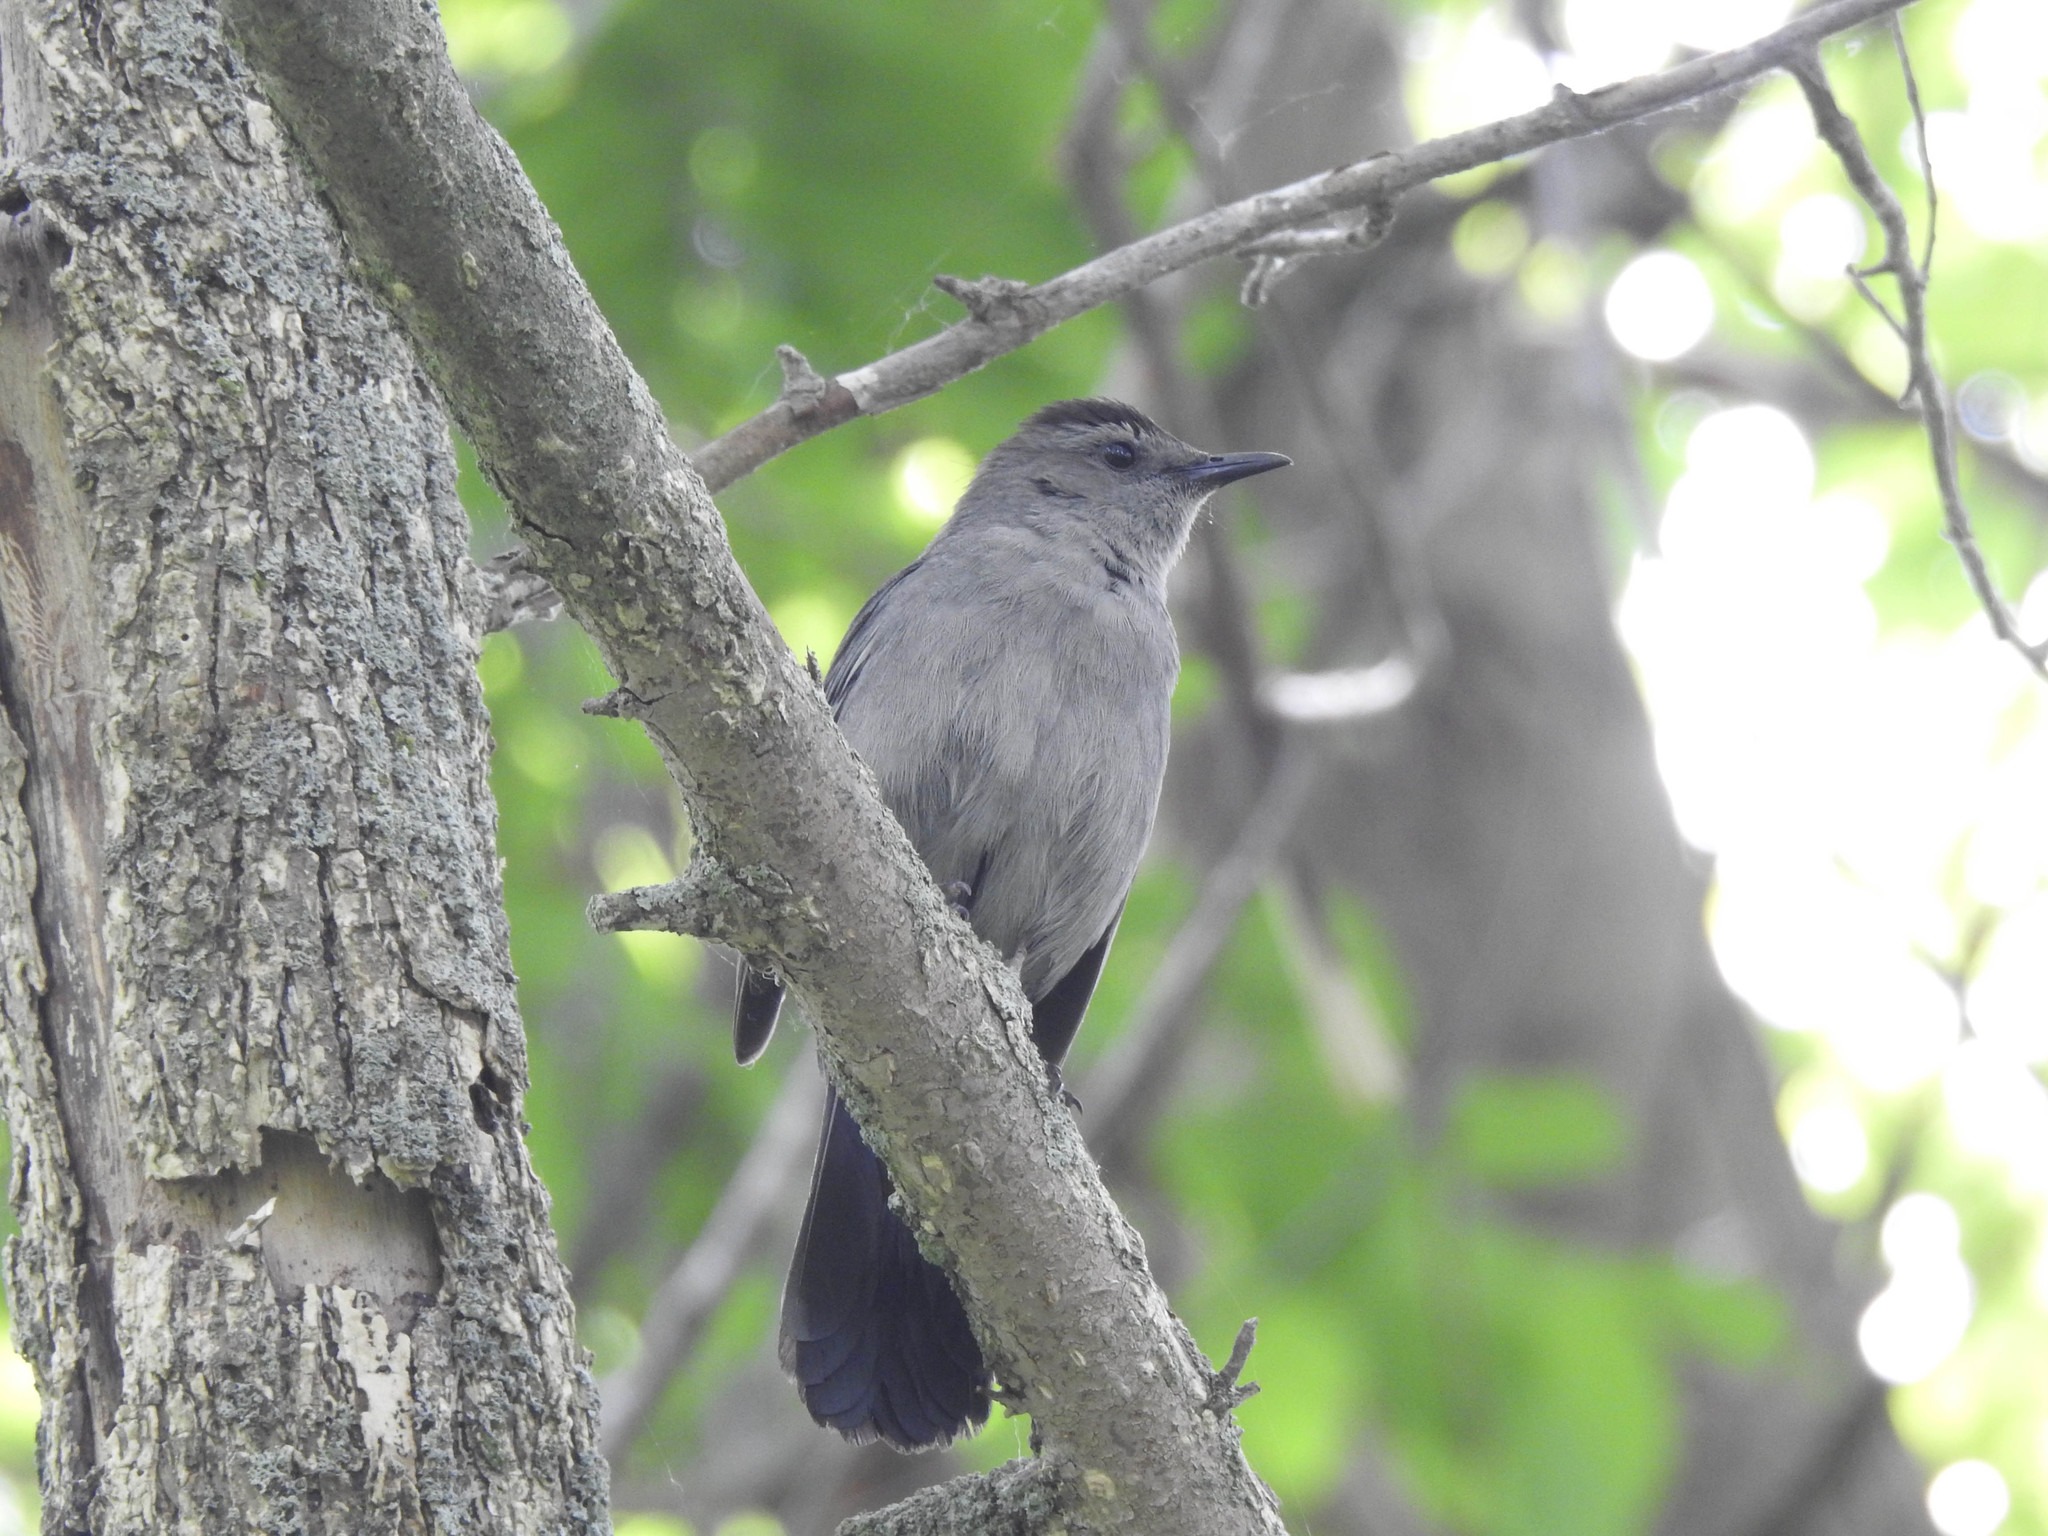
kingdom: Animalia
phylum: Chordata
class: Aves
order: Passeriformes
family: Mimidae
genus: Dumetella
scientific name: Dumetella carolinensis
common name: Gray catbird
